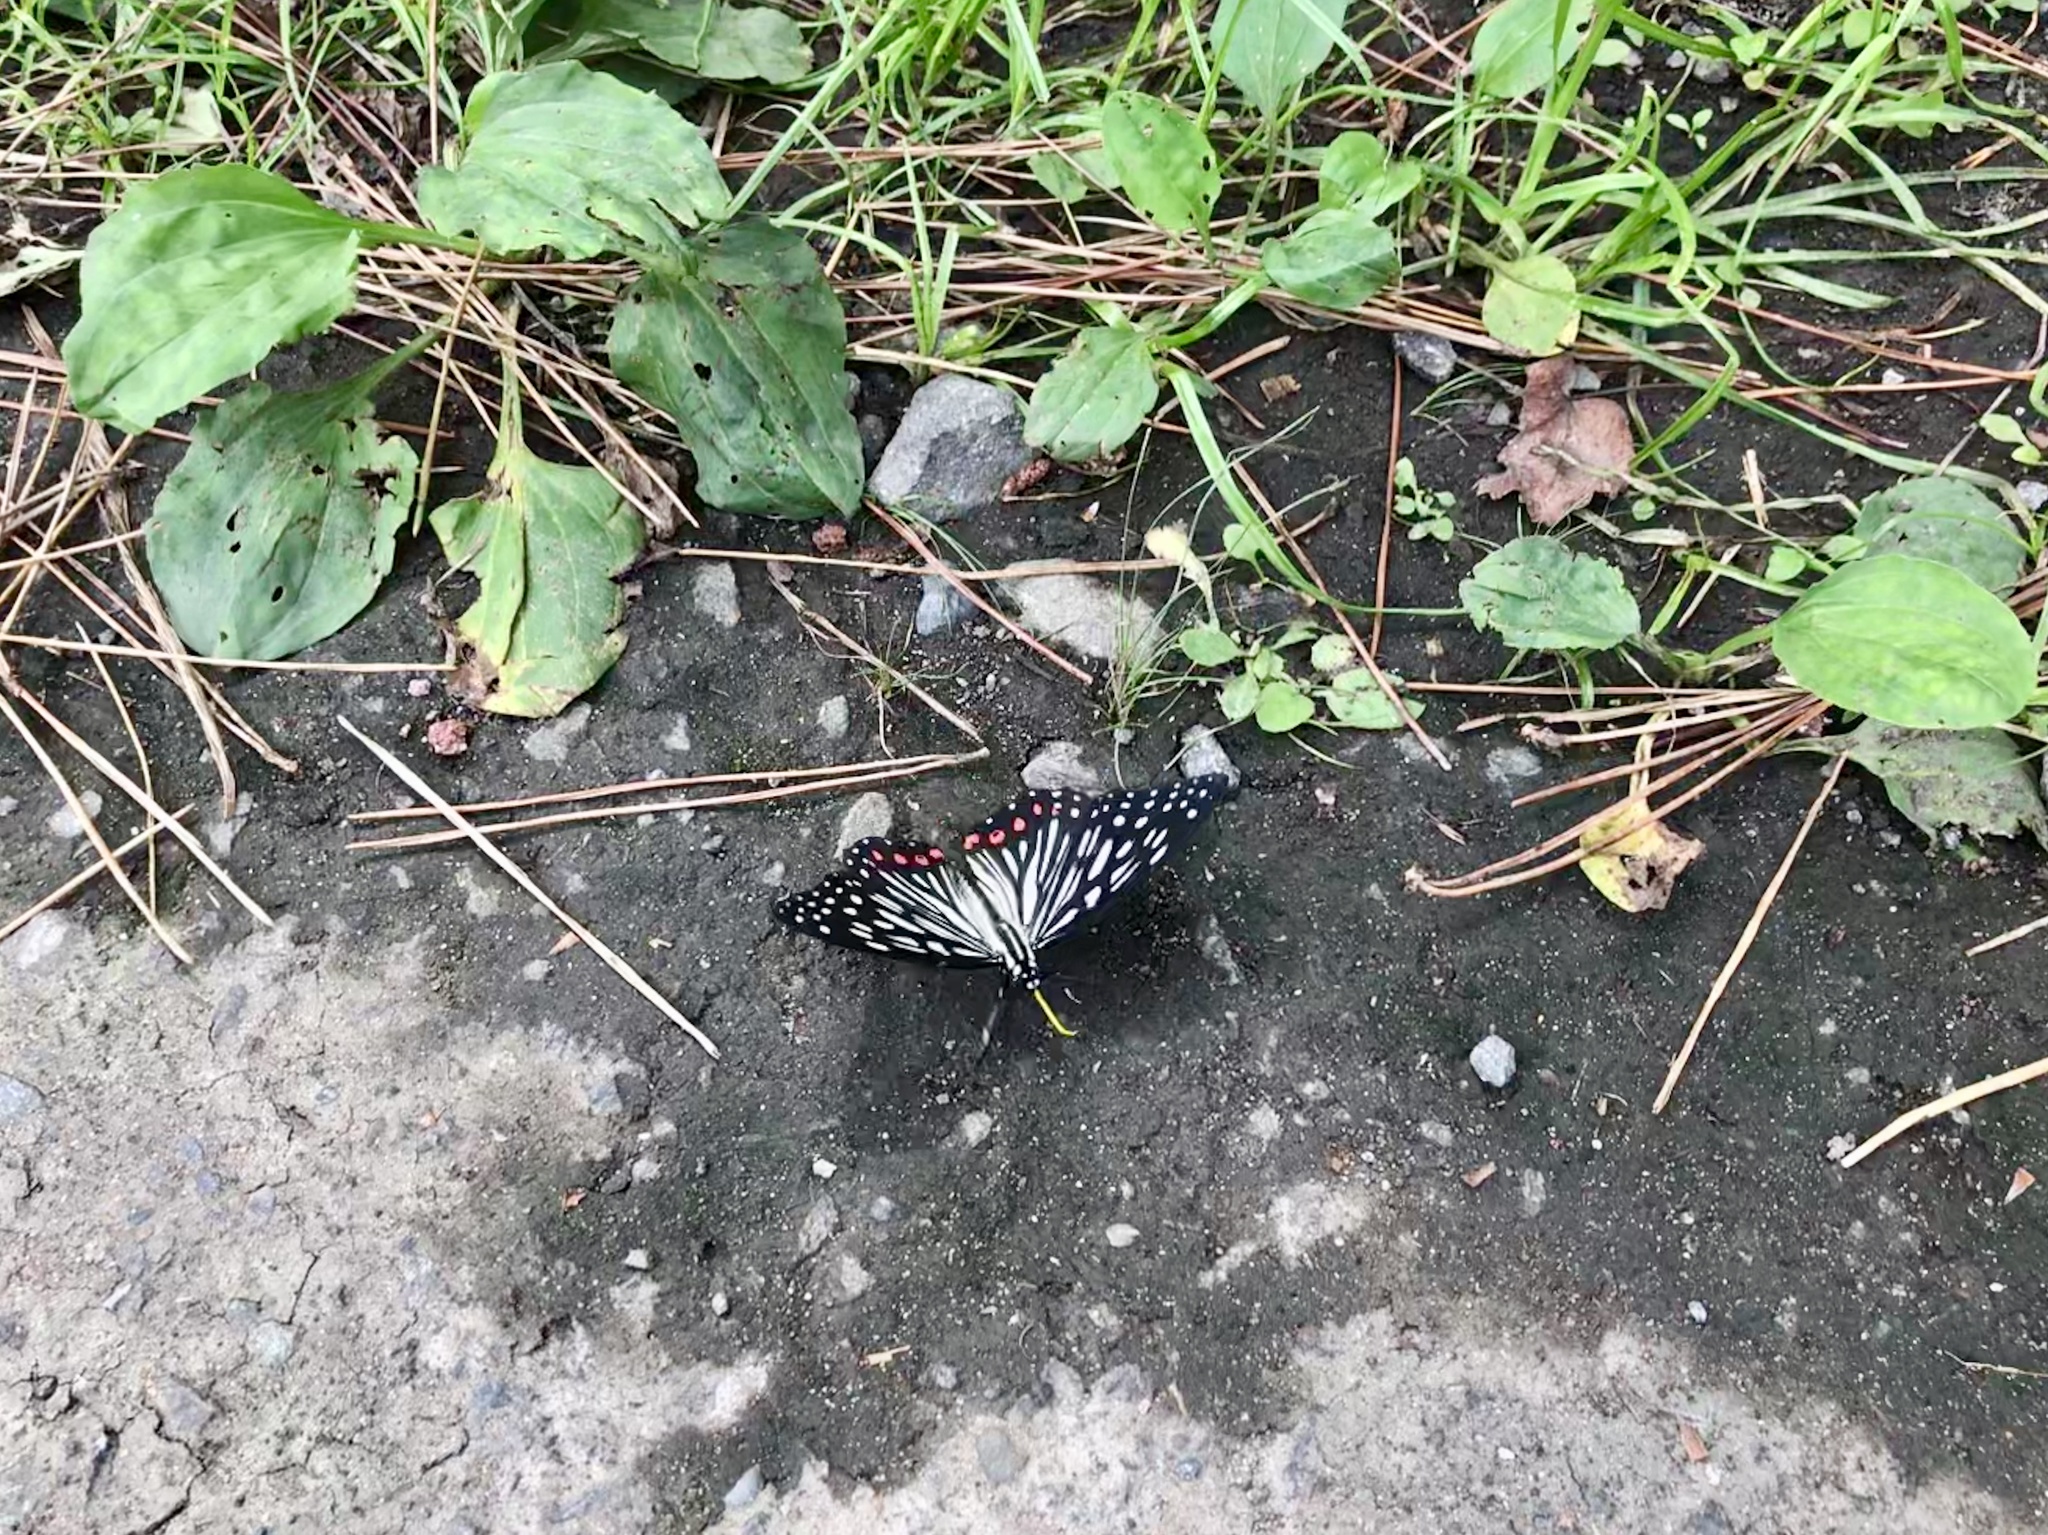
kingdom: Animalia
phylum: Arthropoda
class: Insecta
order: Lepidoptera
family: Nymphalidae
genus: Hestina
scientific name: Hestina assimilis
